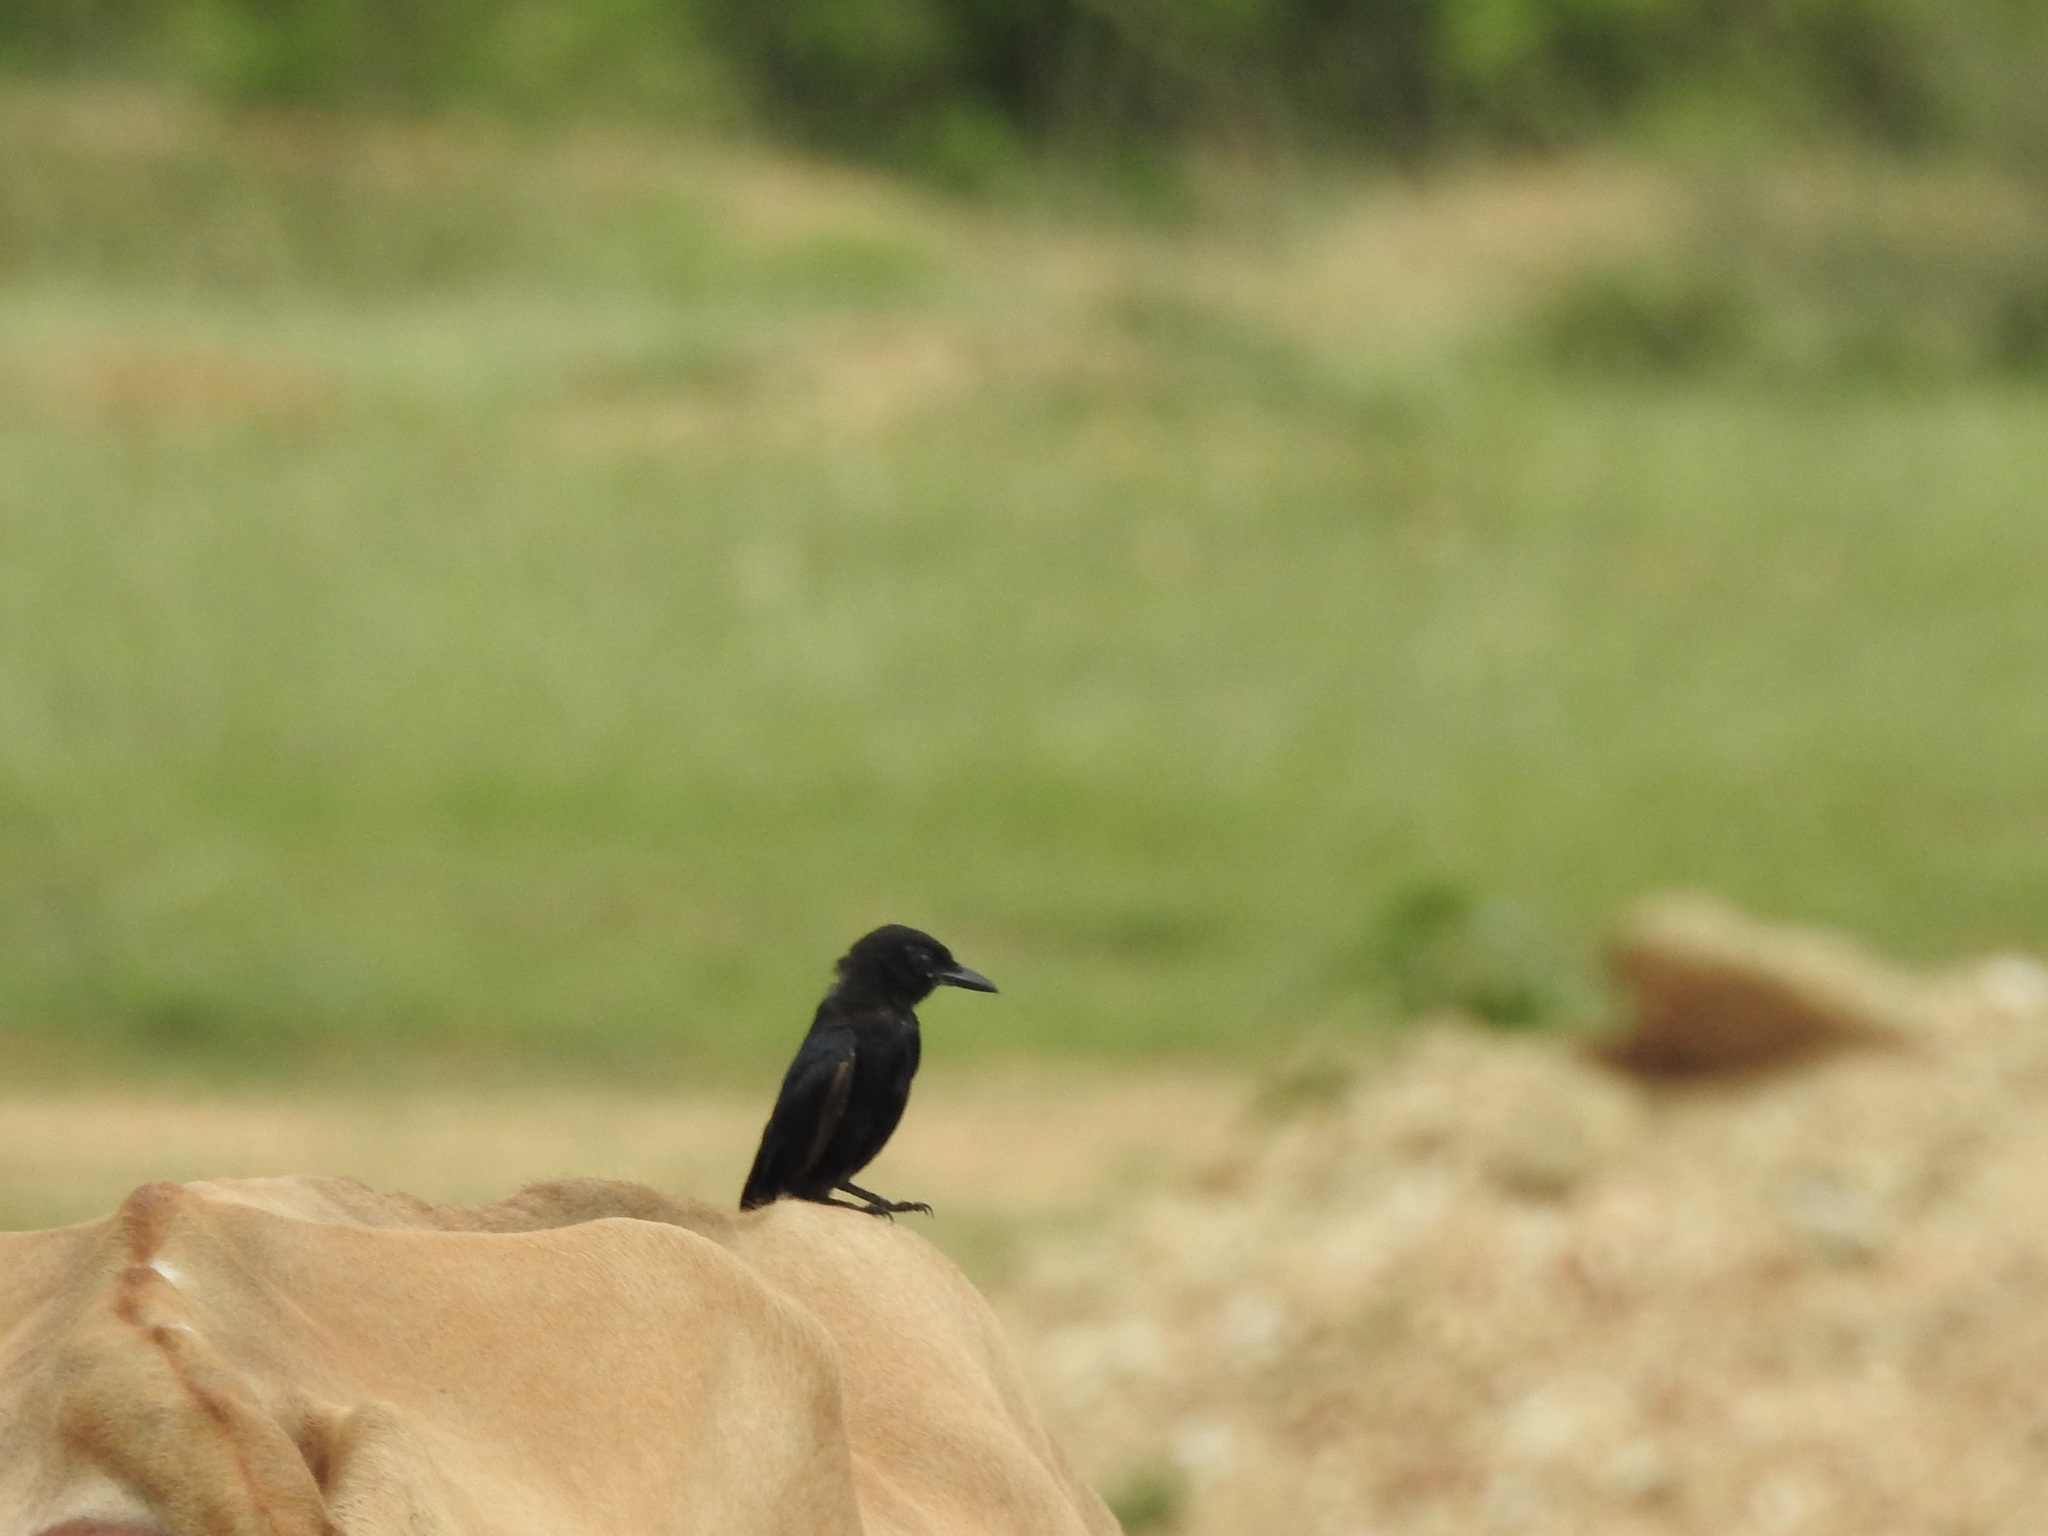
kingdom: Animalia
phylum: Chordata
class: Aves
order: Passeriformes
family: Dicruridae
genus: Dicrurus
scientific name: Dicrurus macrocercus
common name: Black drongo
